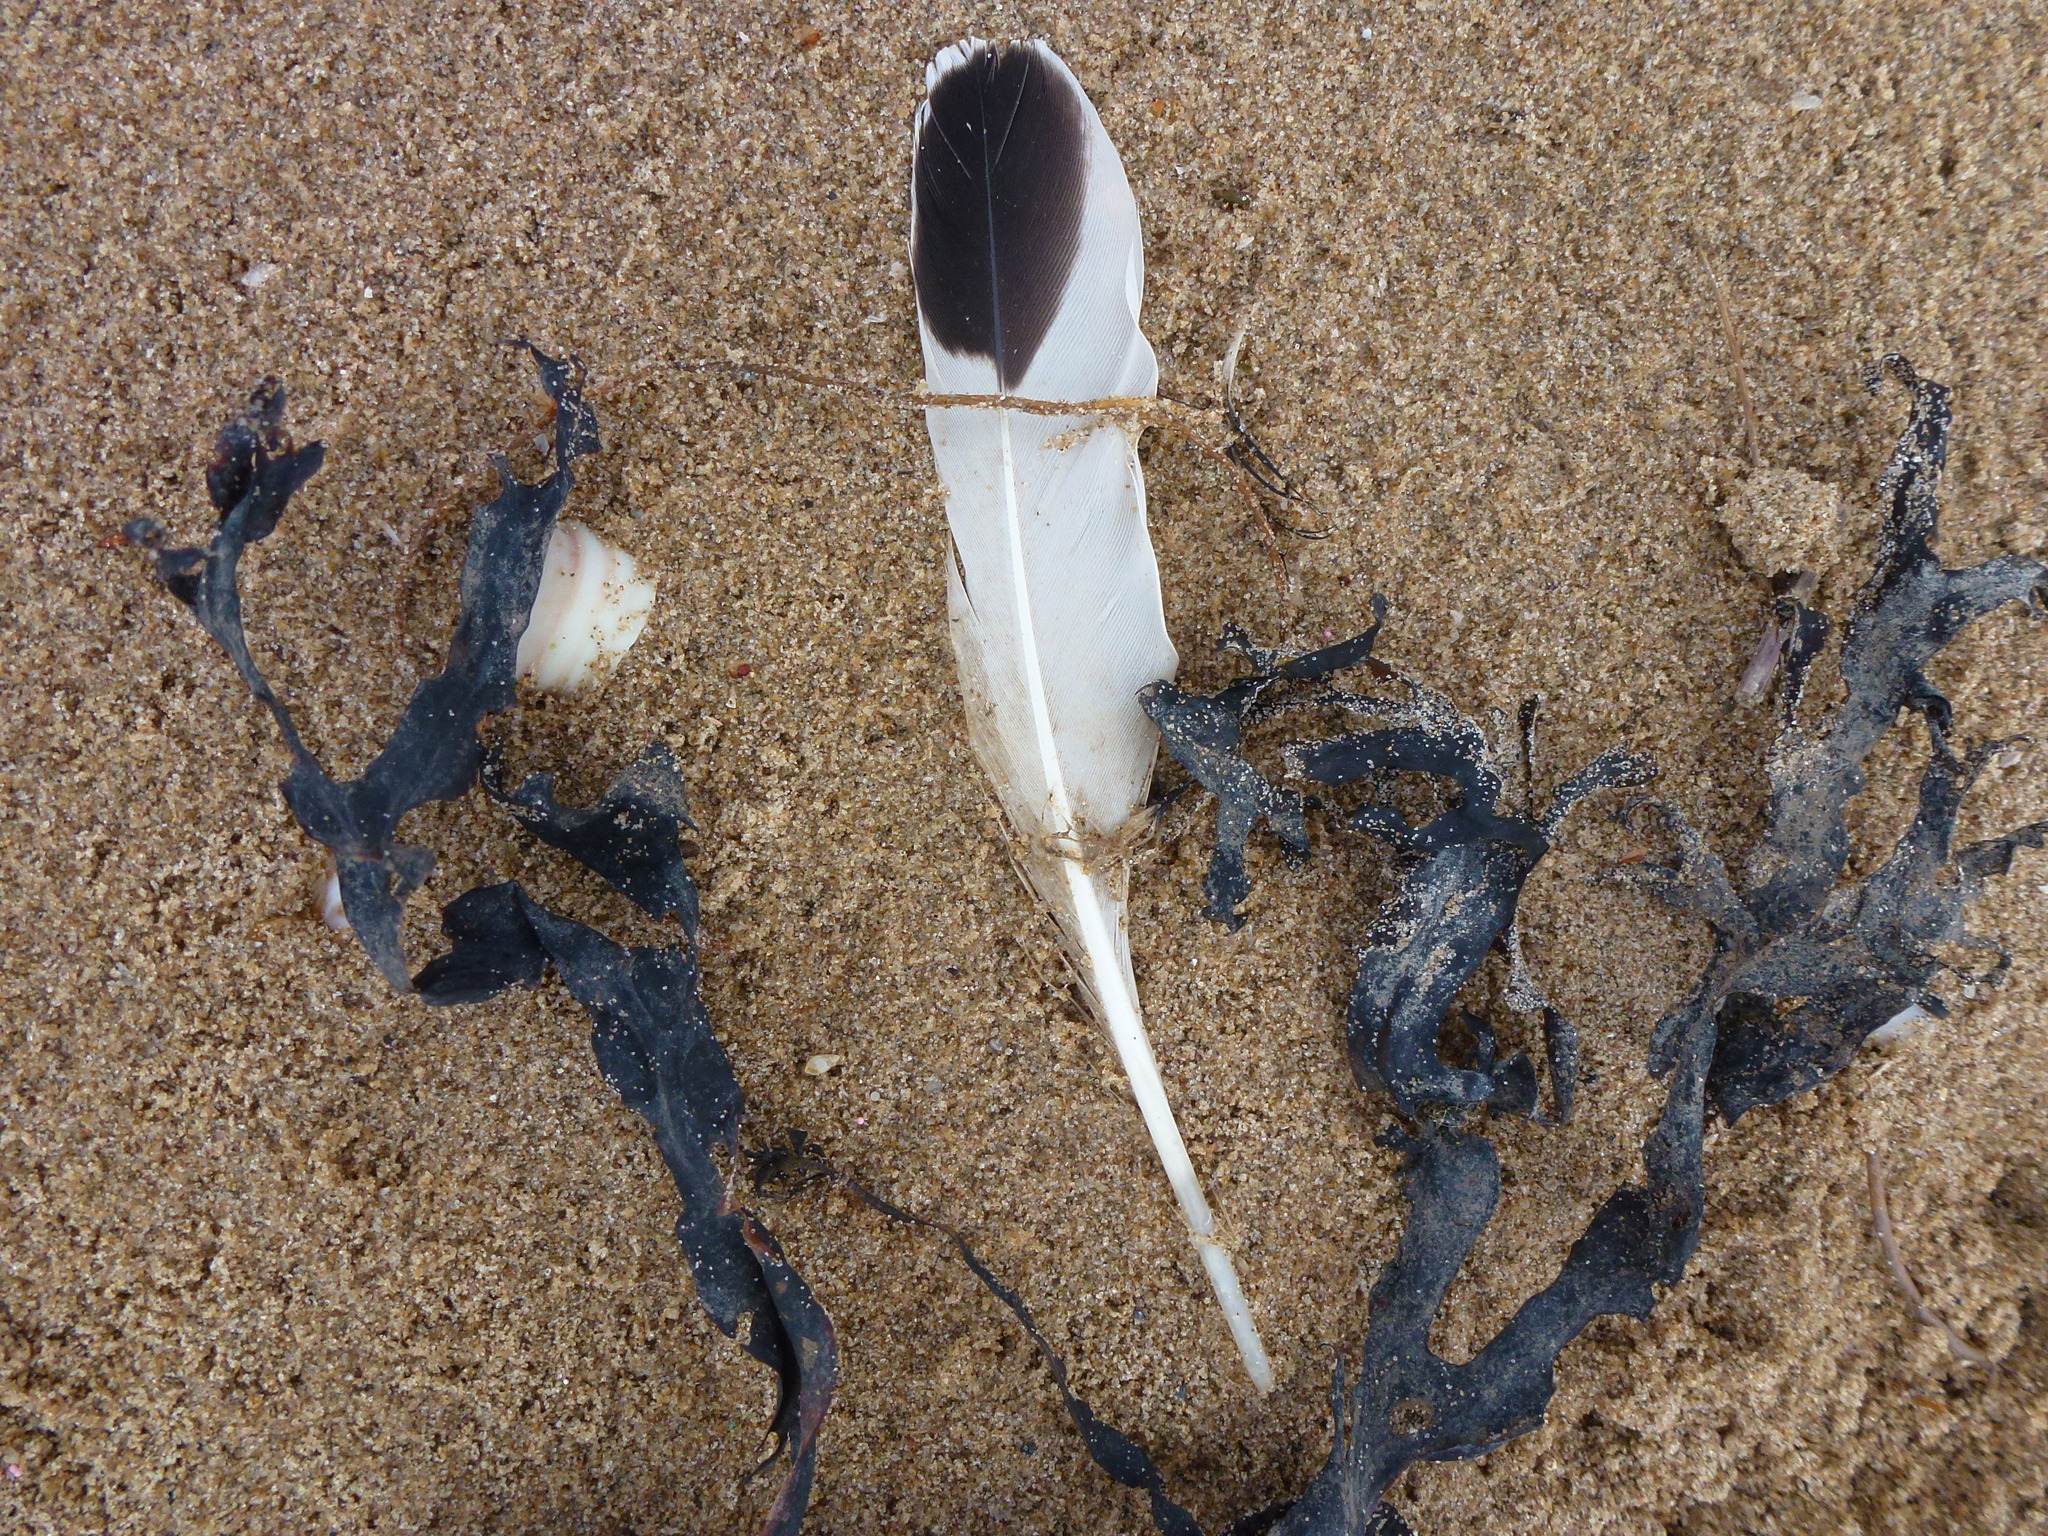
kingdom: Animalia
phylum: Chordata
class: Aves
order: Charadriiformes
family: Haematopodidae
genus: Haematopus
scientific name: Haematopus ostralegus
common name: Eurasian oystercatcher
